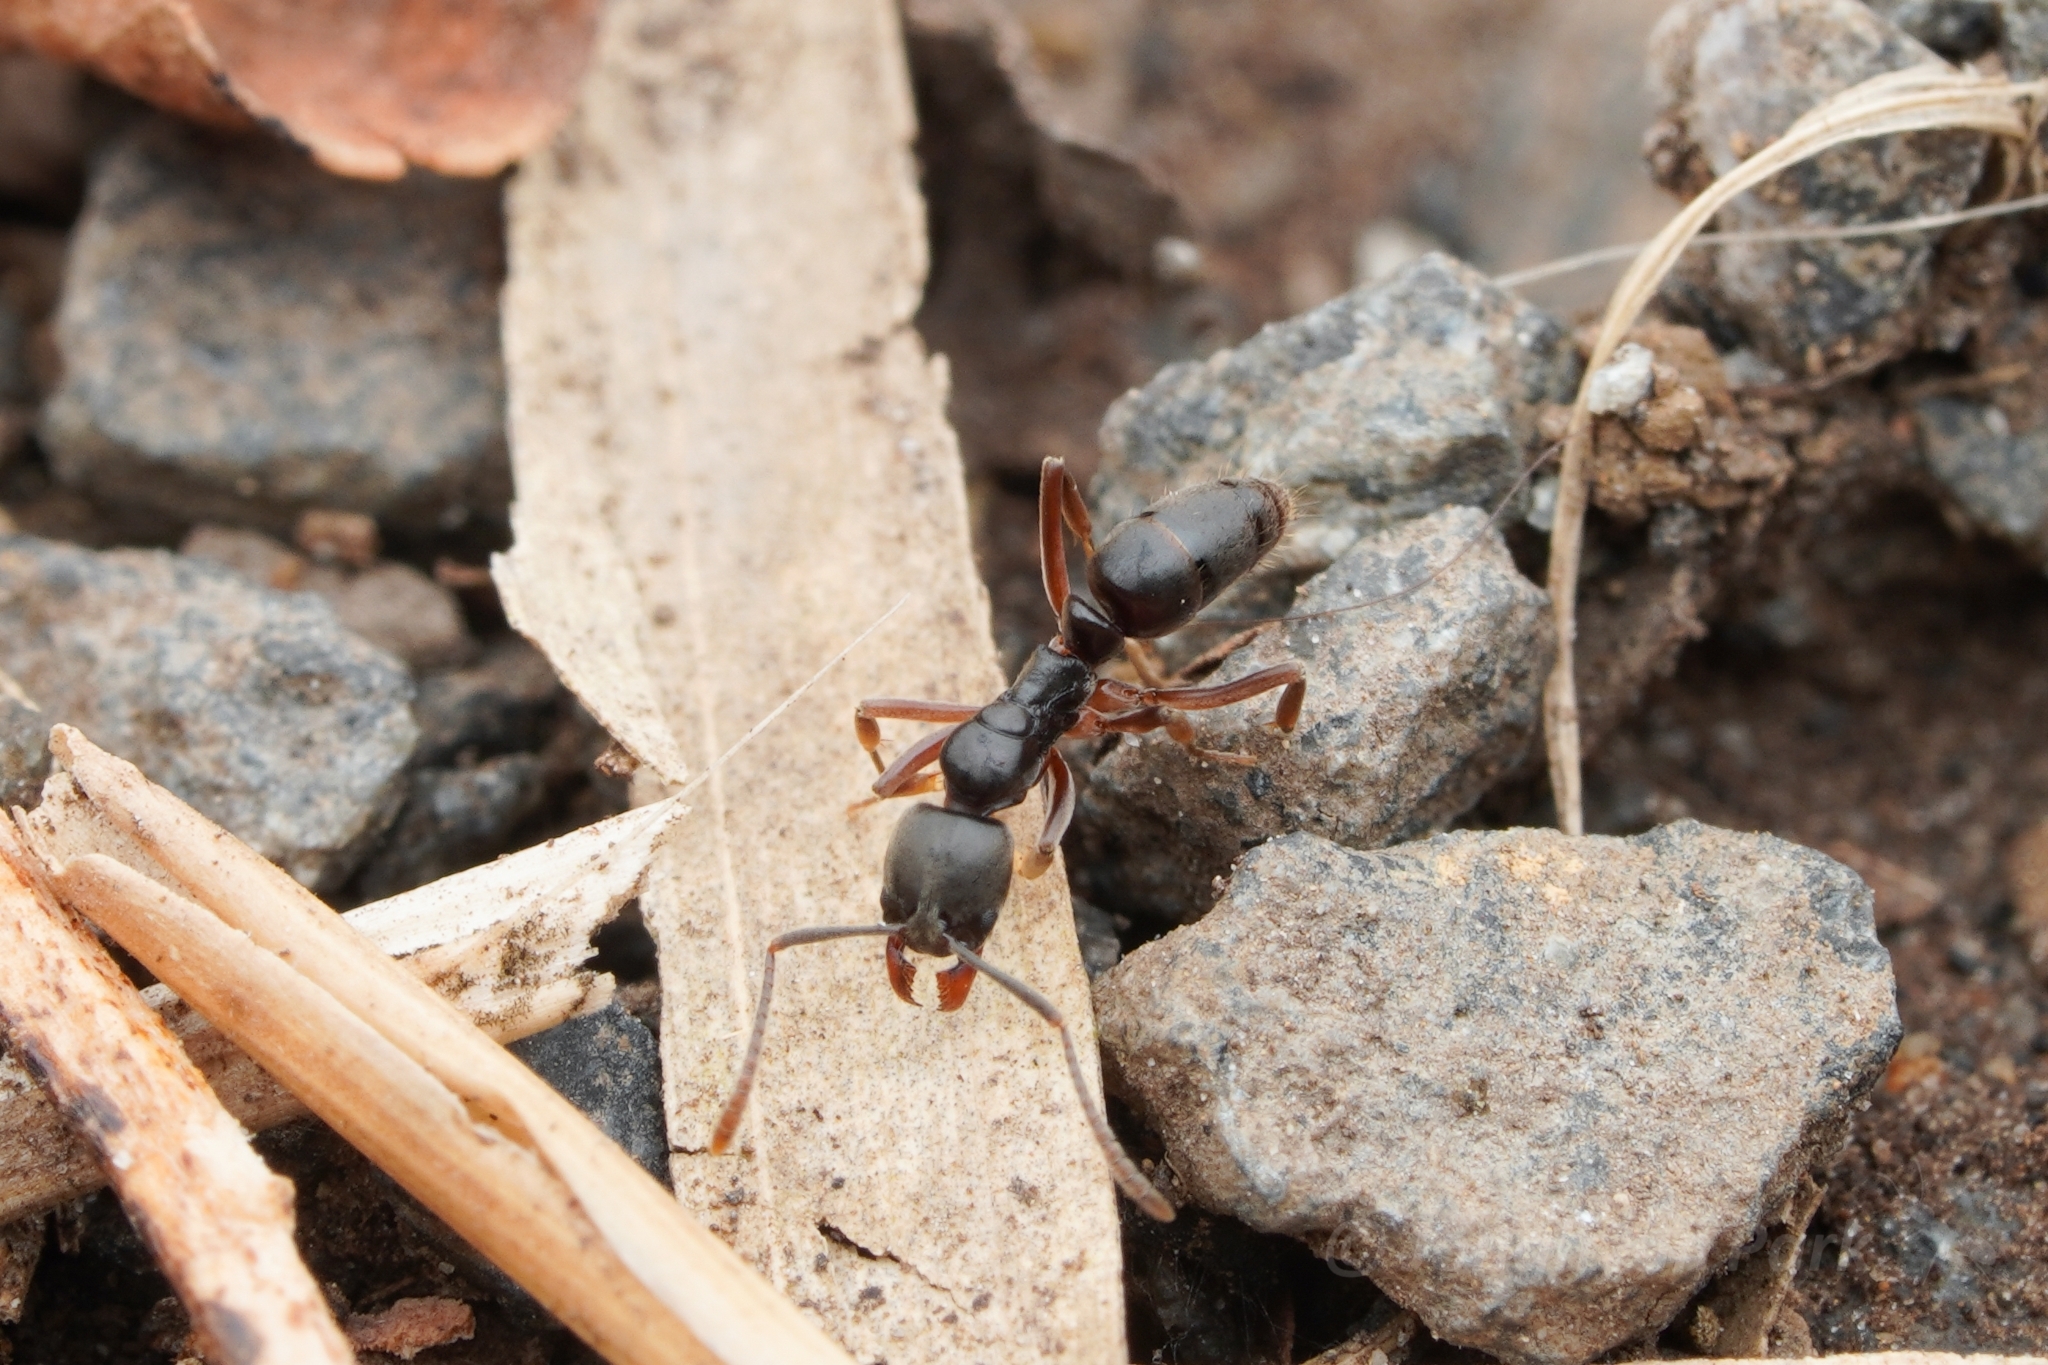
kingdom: Animalia
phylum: Arthropoda
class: Insecta
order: Hymenoptera
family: Formicidae
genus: Pachycondyla
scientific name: Pachycondyla chinensis
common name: Asian needle ant
